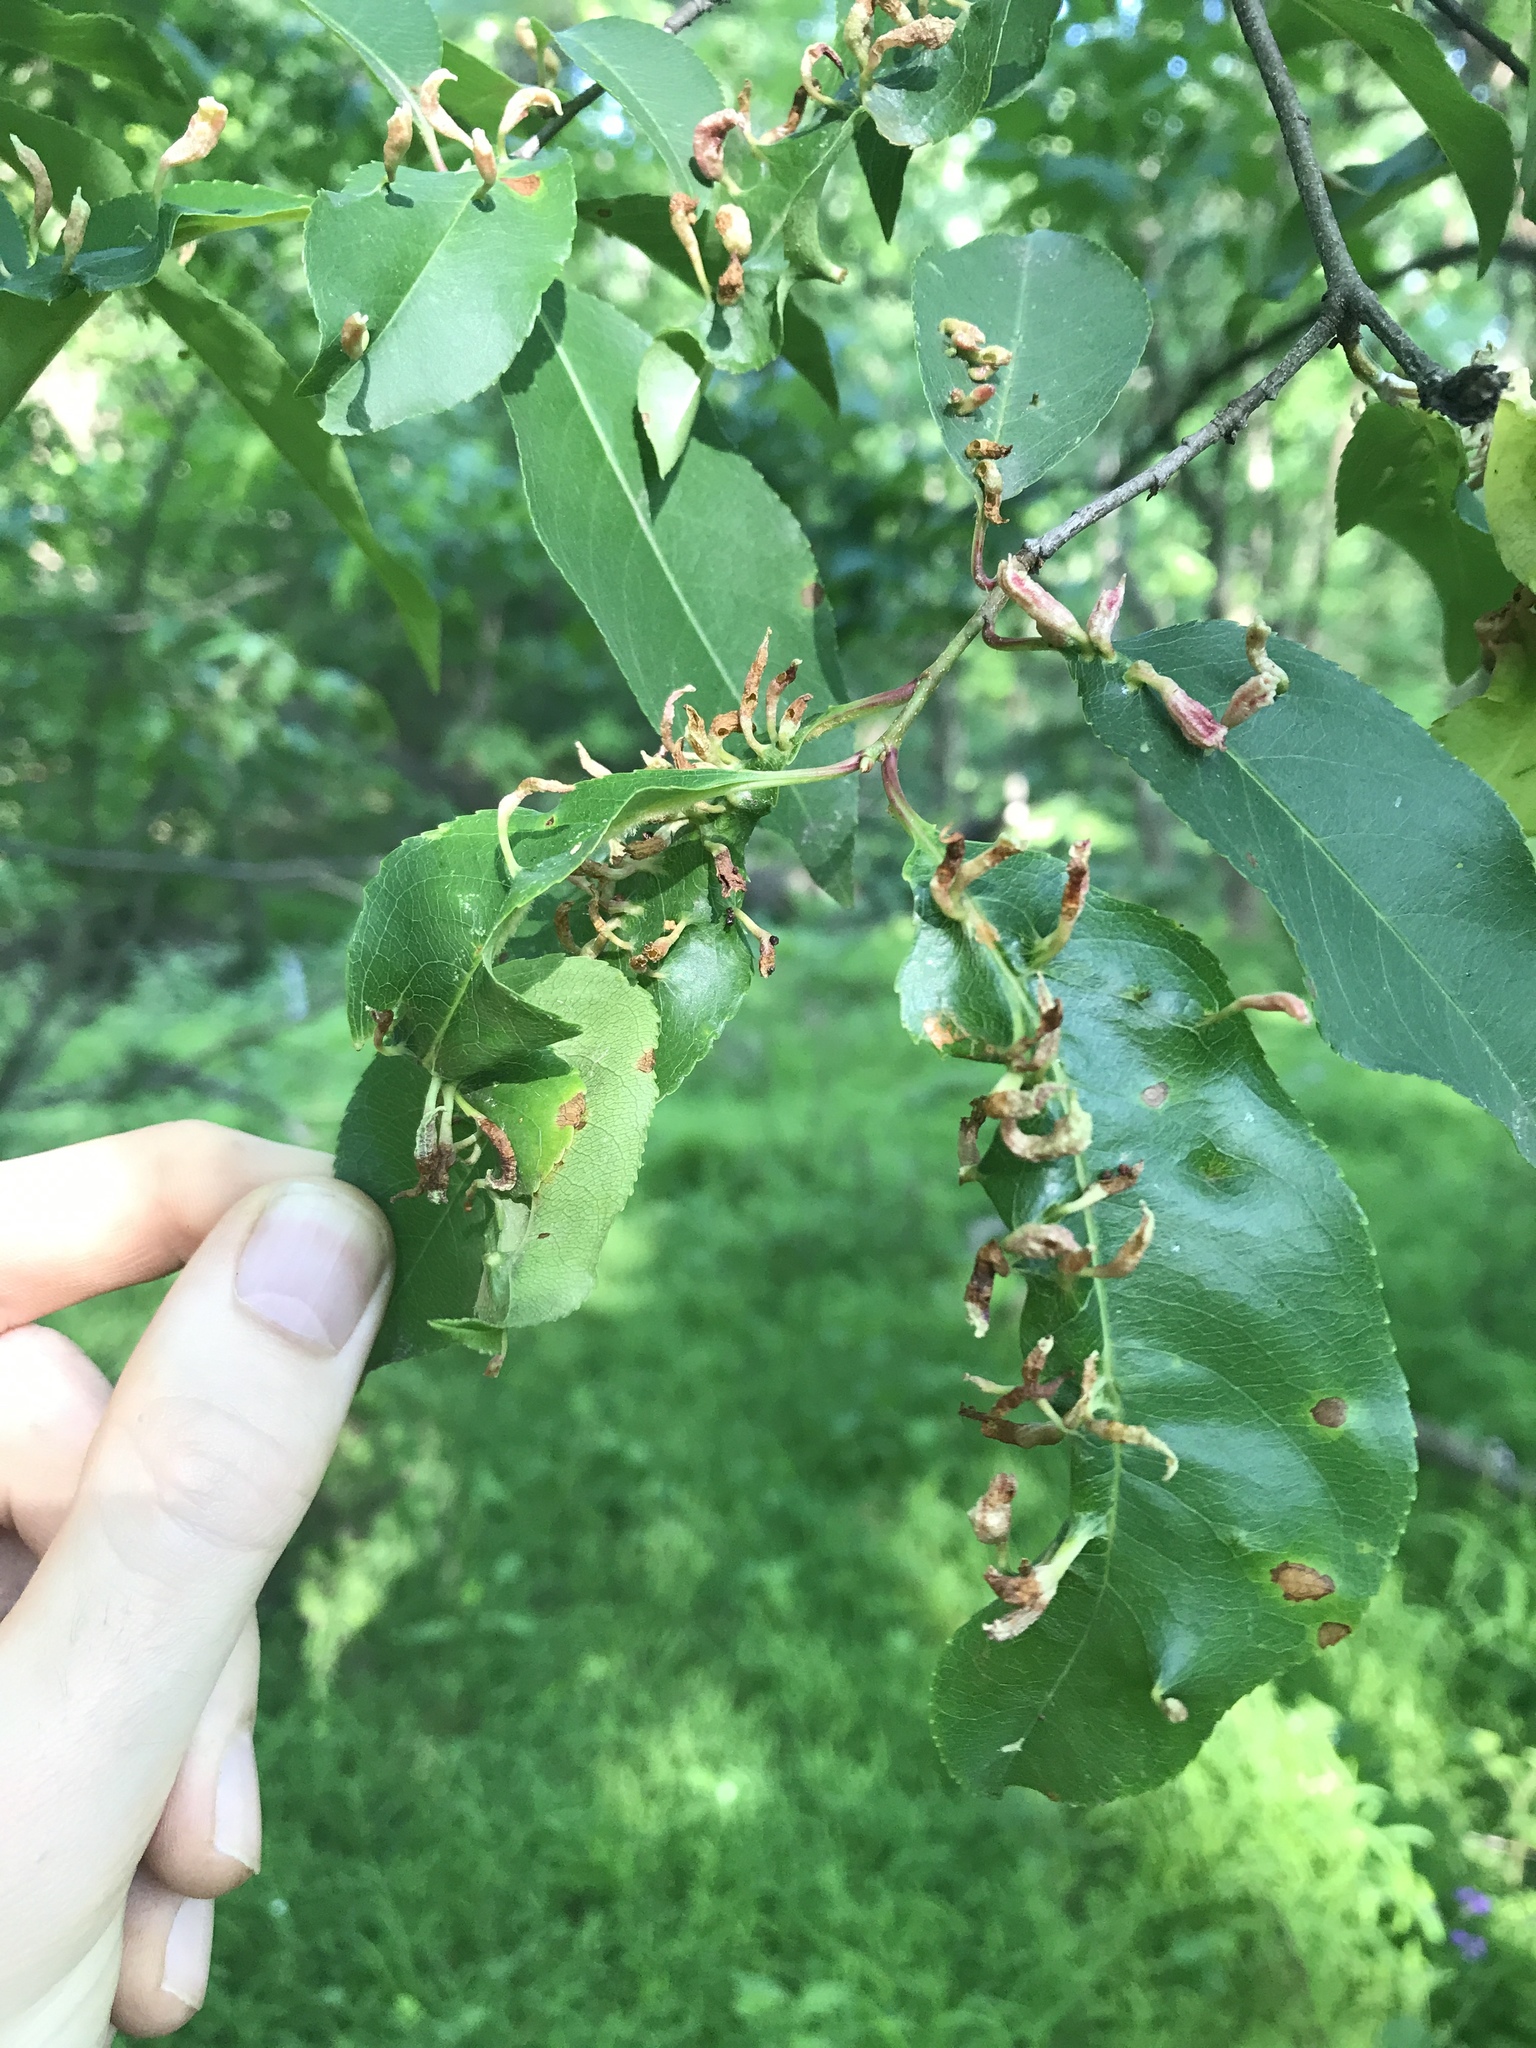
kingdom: Animalia
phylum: Arthropoda
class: Arachnida
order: Trombidiformes
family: Eriophyidae
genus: Eriophyes
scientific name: Eriophyes
